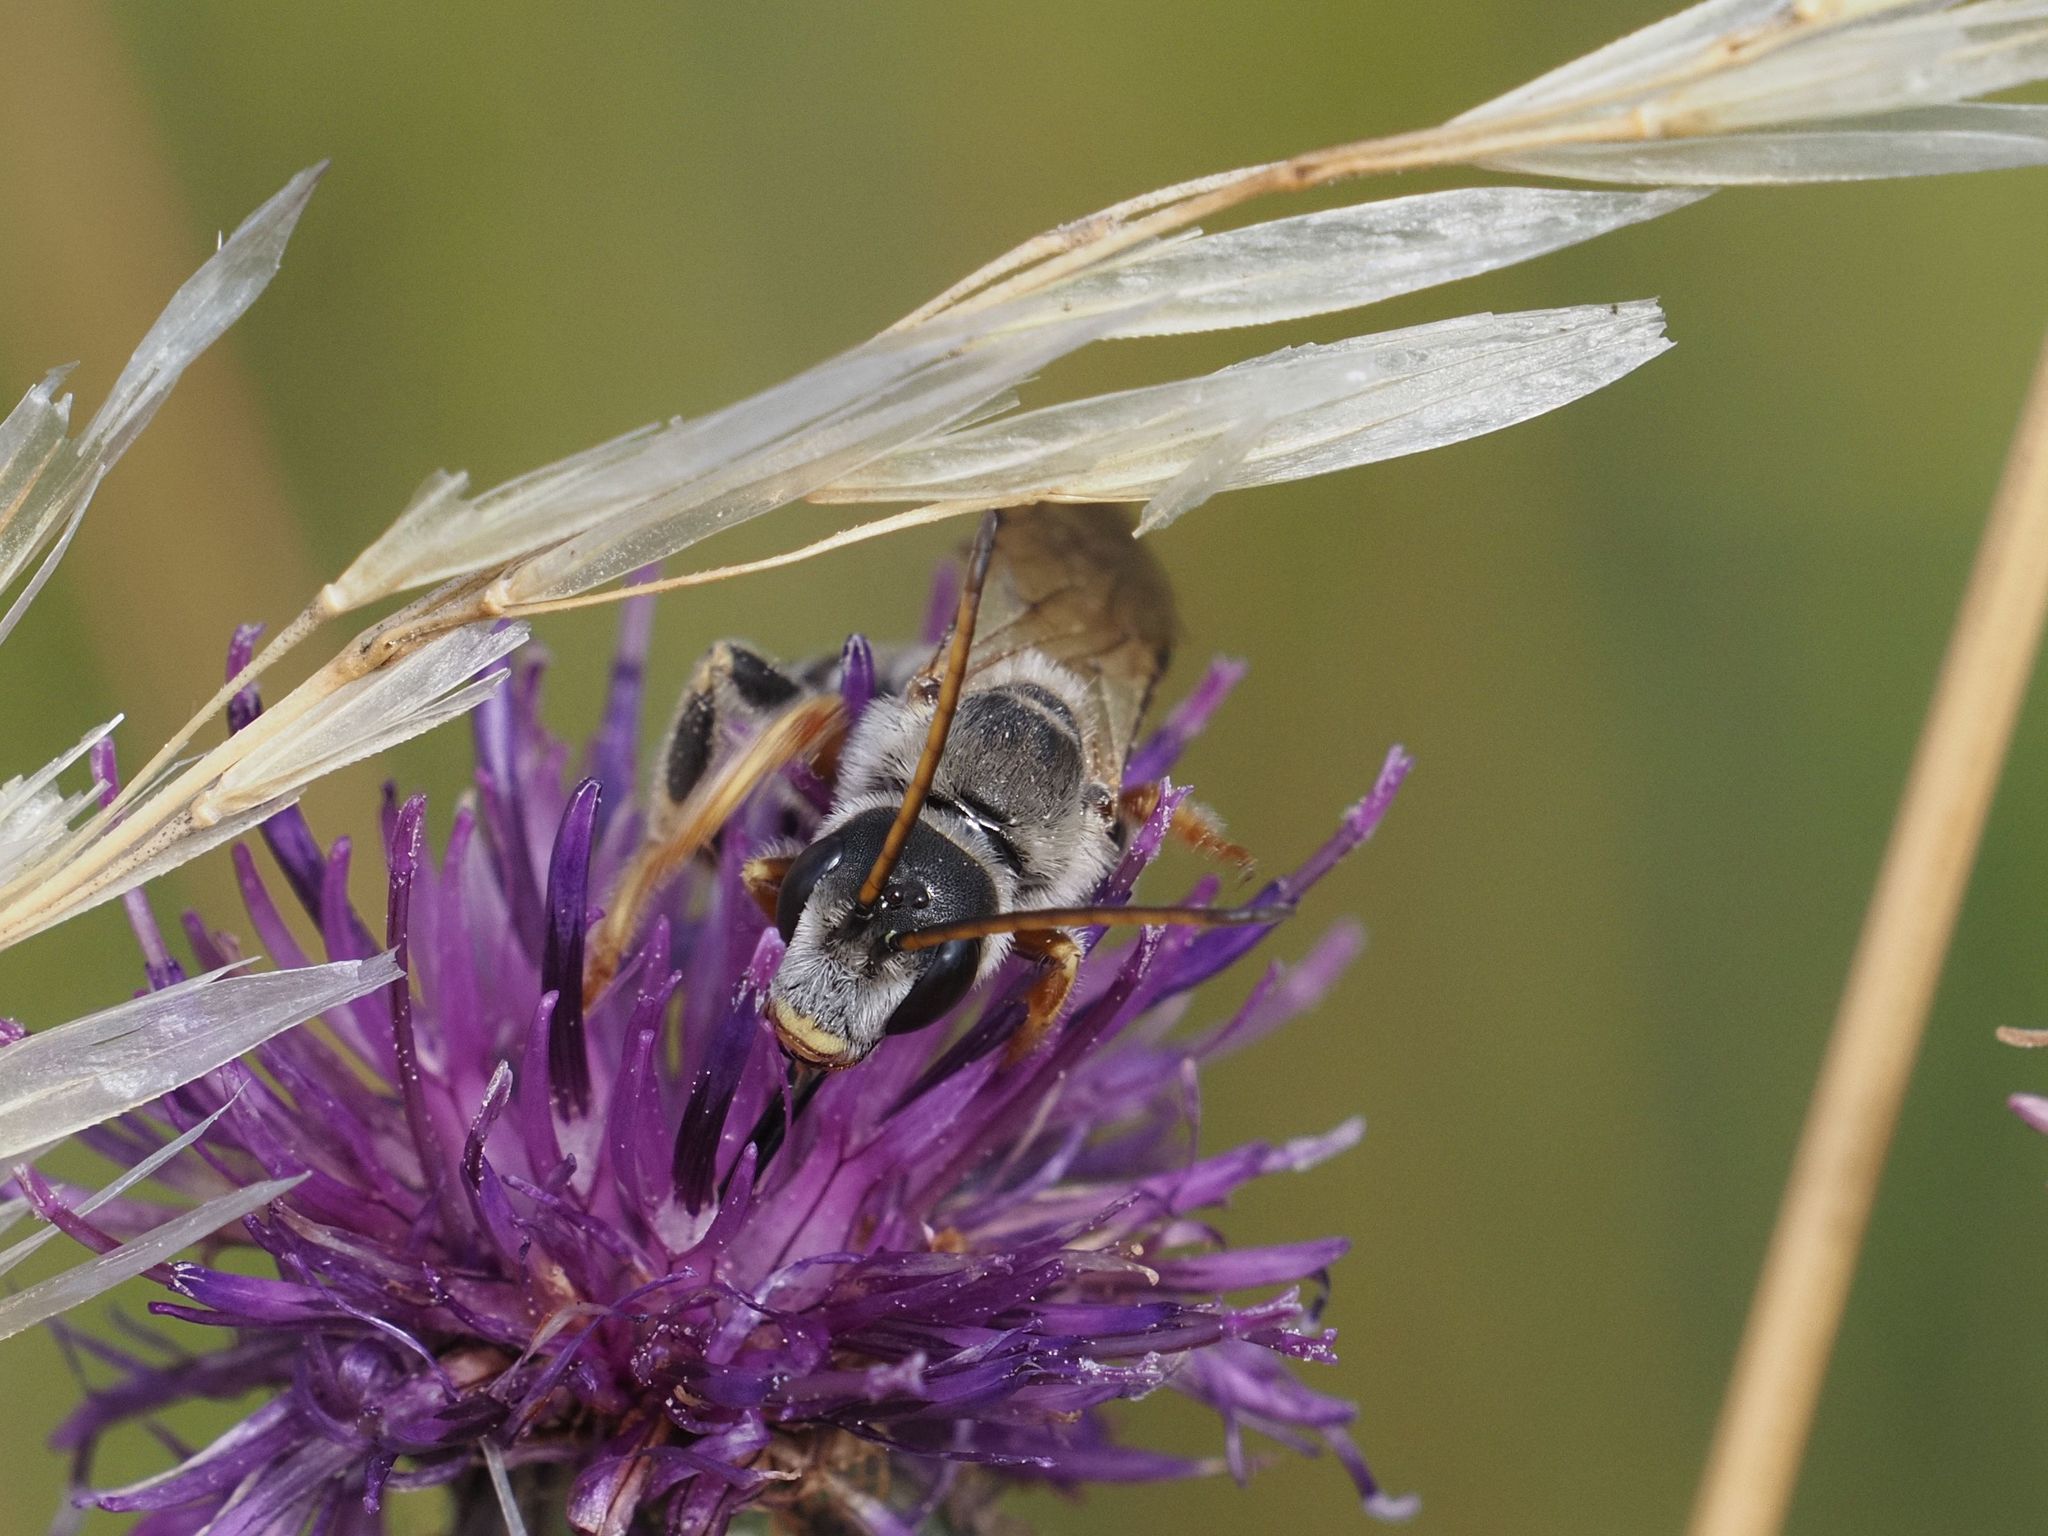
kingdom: Animalia
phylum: Arthropoda
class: Insecta
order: Hymenoptera
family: Halictidae
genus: Halictus
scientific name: Halictus quadricinctus
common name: Giant furrow bee
